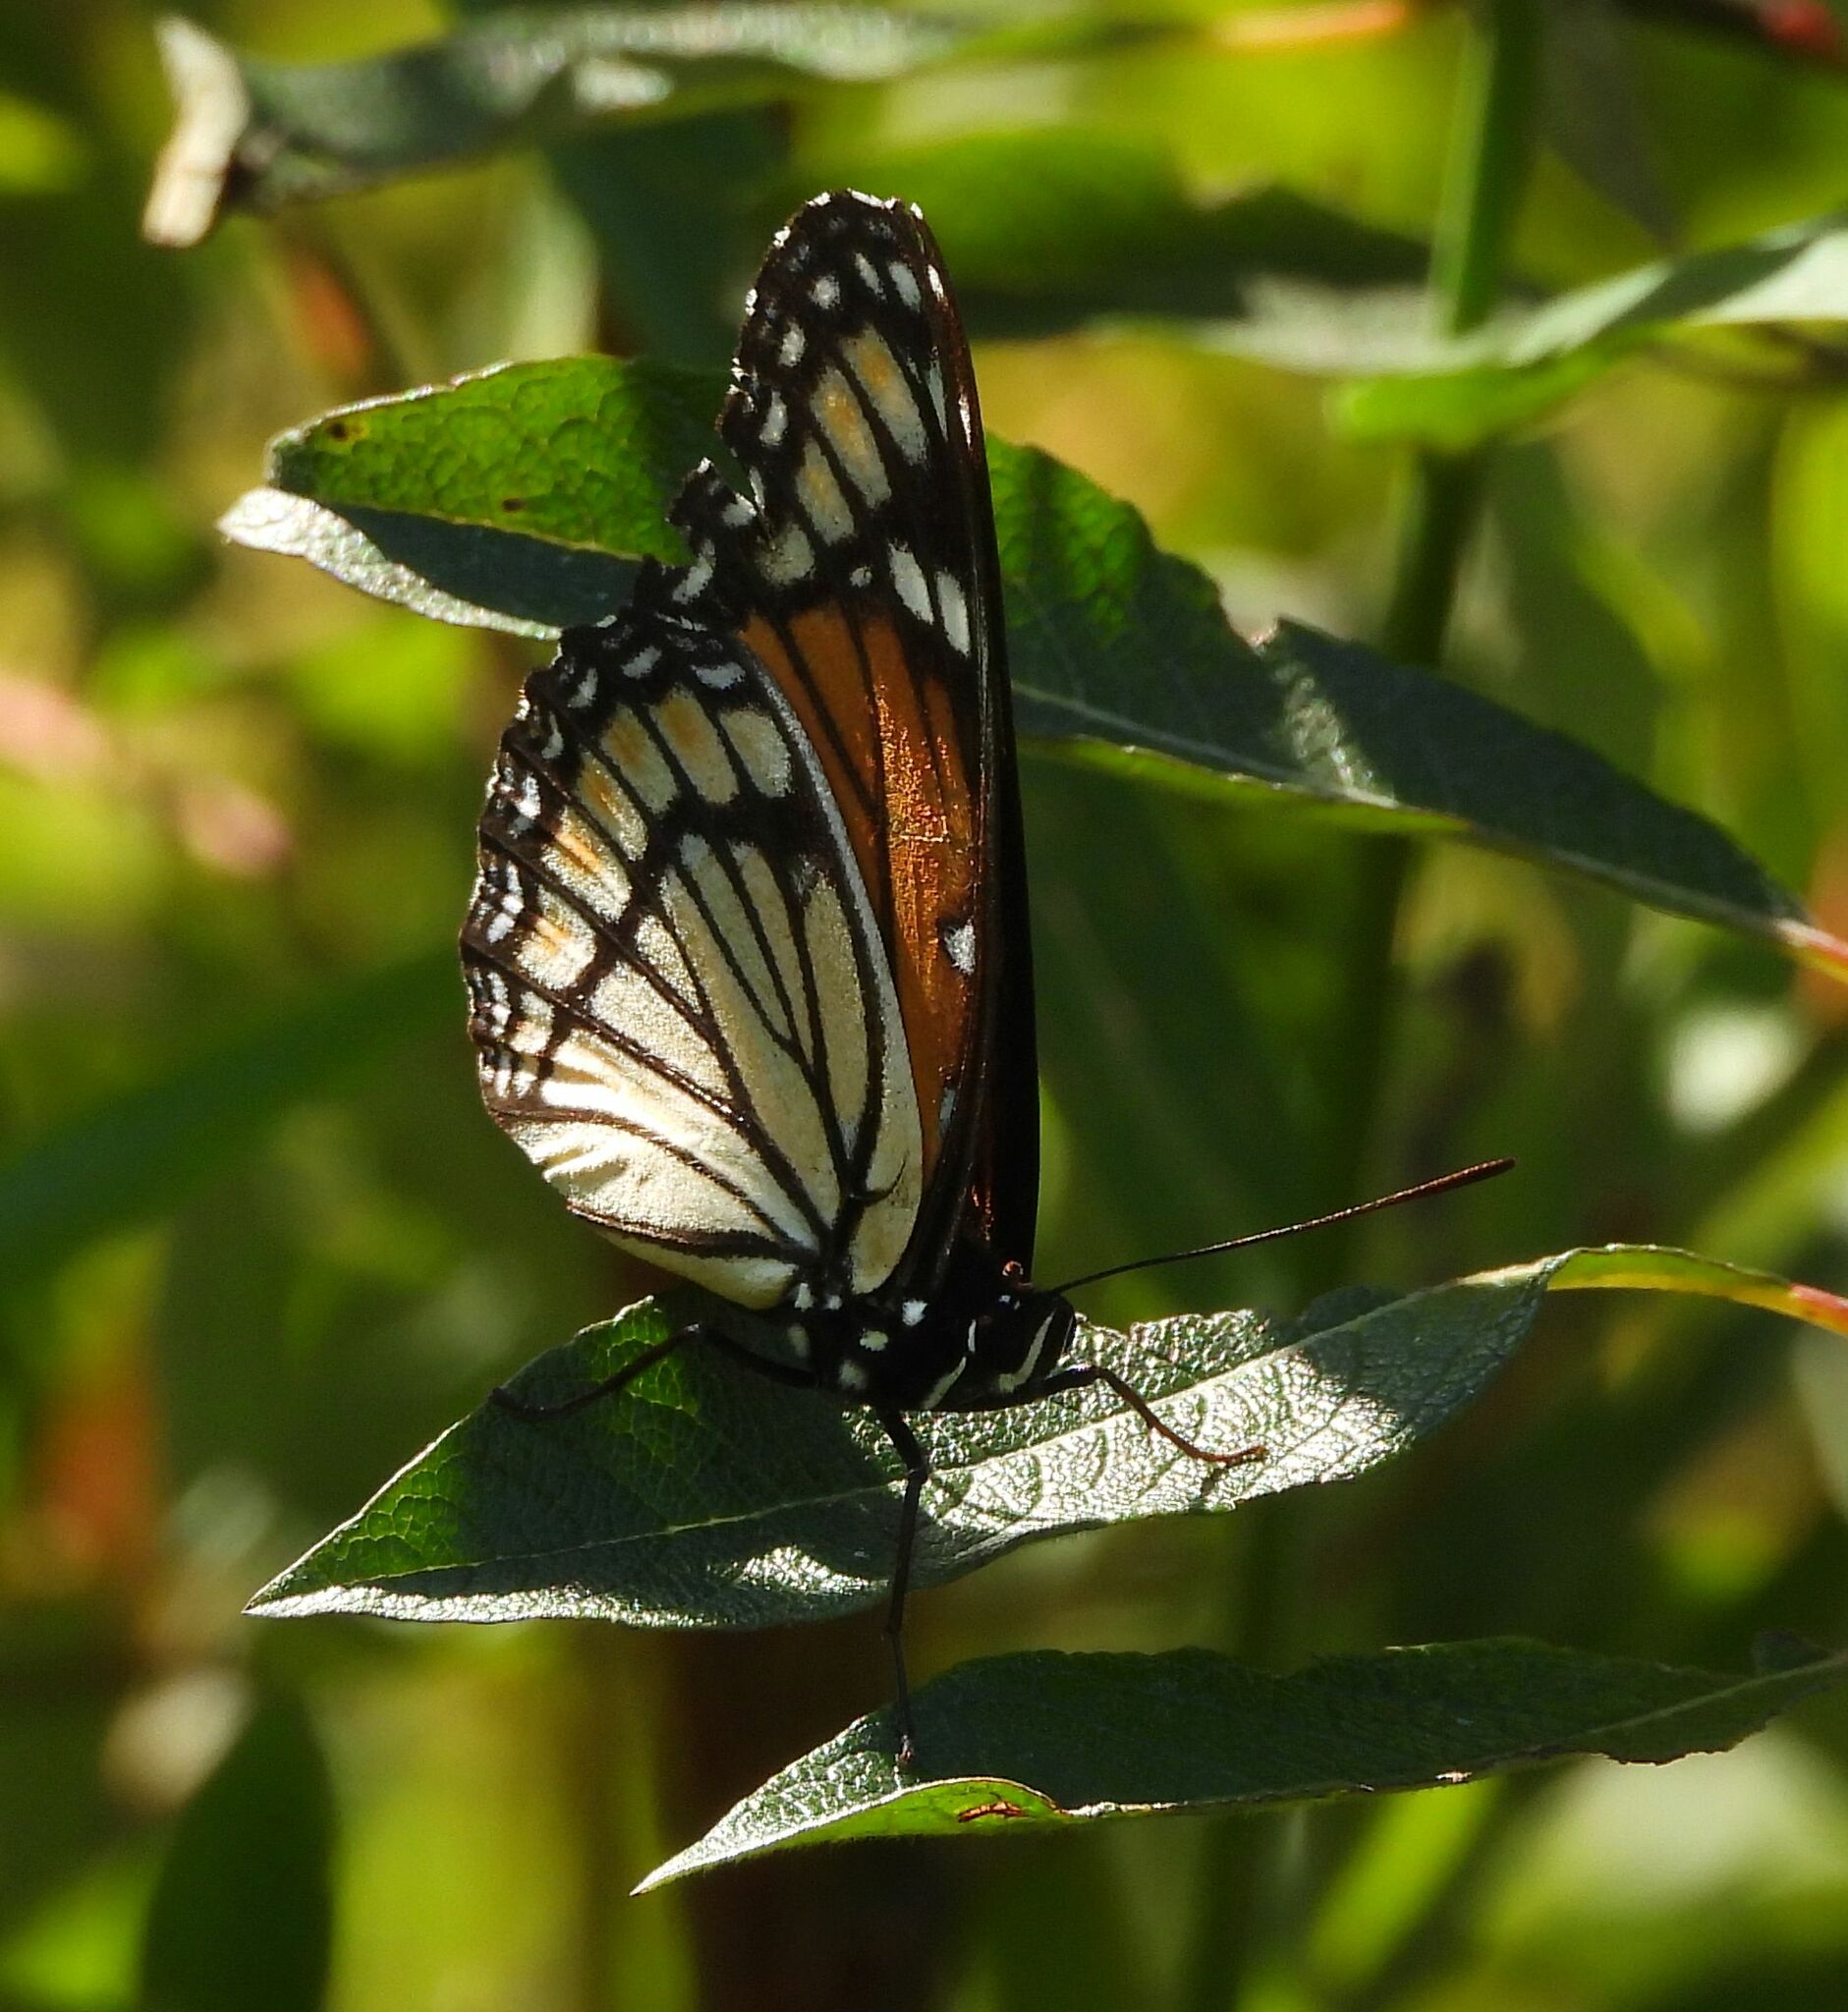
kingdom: Animalia
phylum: Arthropoda
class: Insecta
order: Lepidoptera
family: Nymphalidae
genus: Limenitis
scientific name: Limenitis archippus
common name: Viceroy
